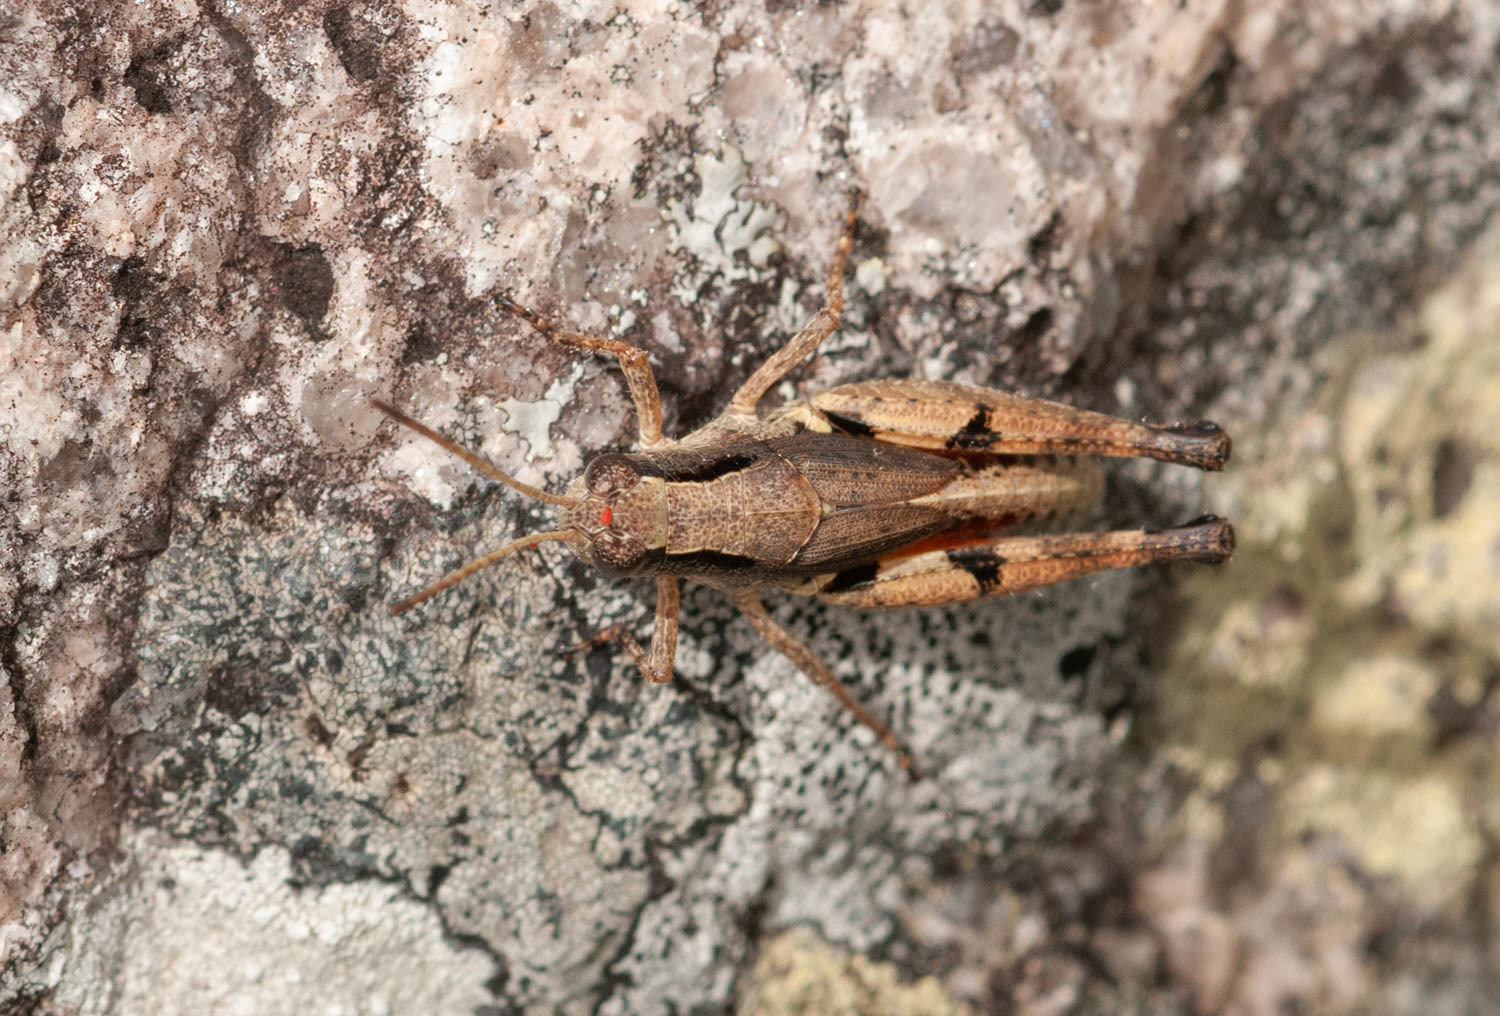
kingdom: Animalia
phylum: Arthropoda
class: Insecta
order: Orthoptera
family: Acrididae
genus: Phaulacridium
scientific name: Phaulacridium vittatum
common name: Wingless grasshopper
